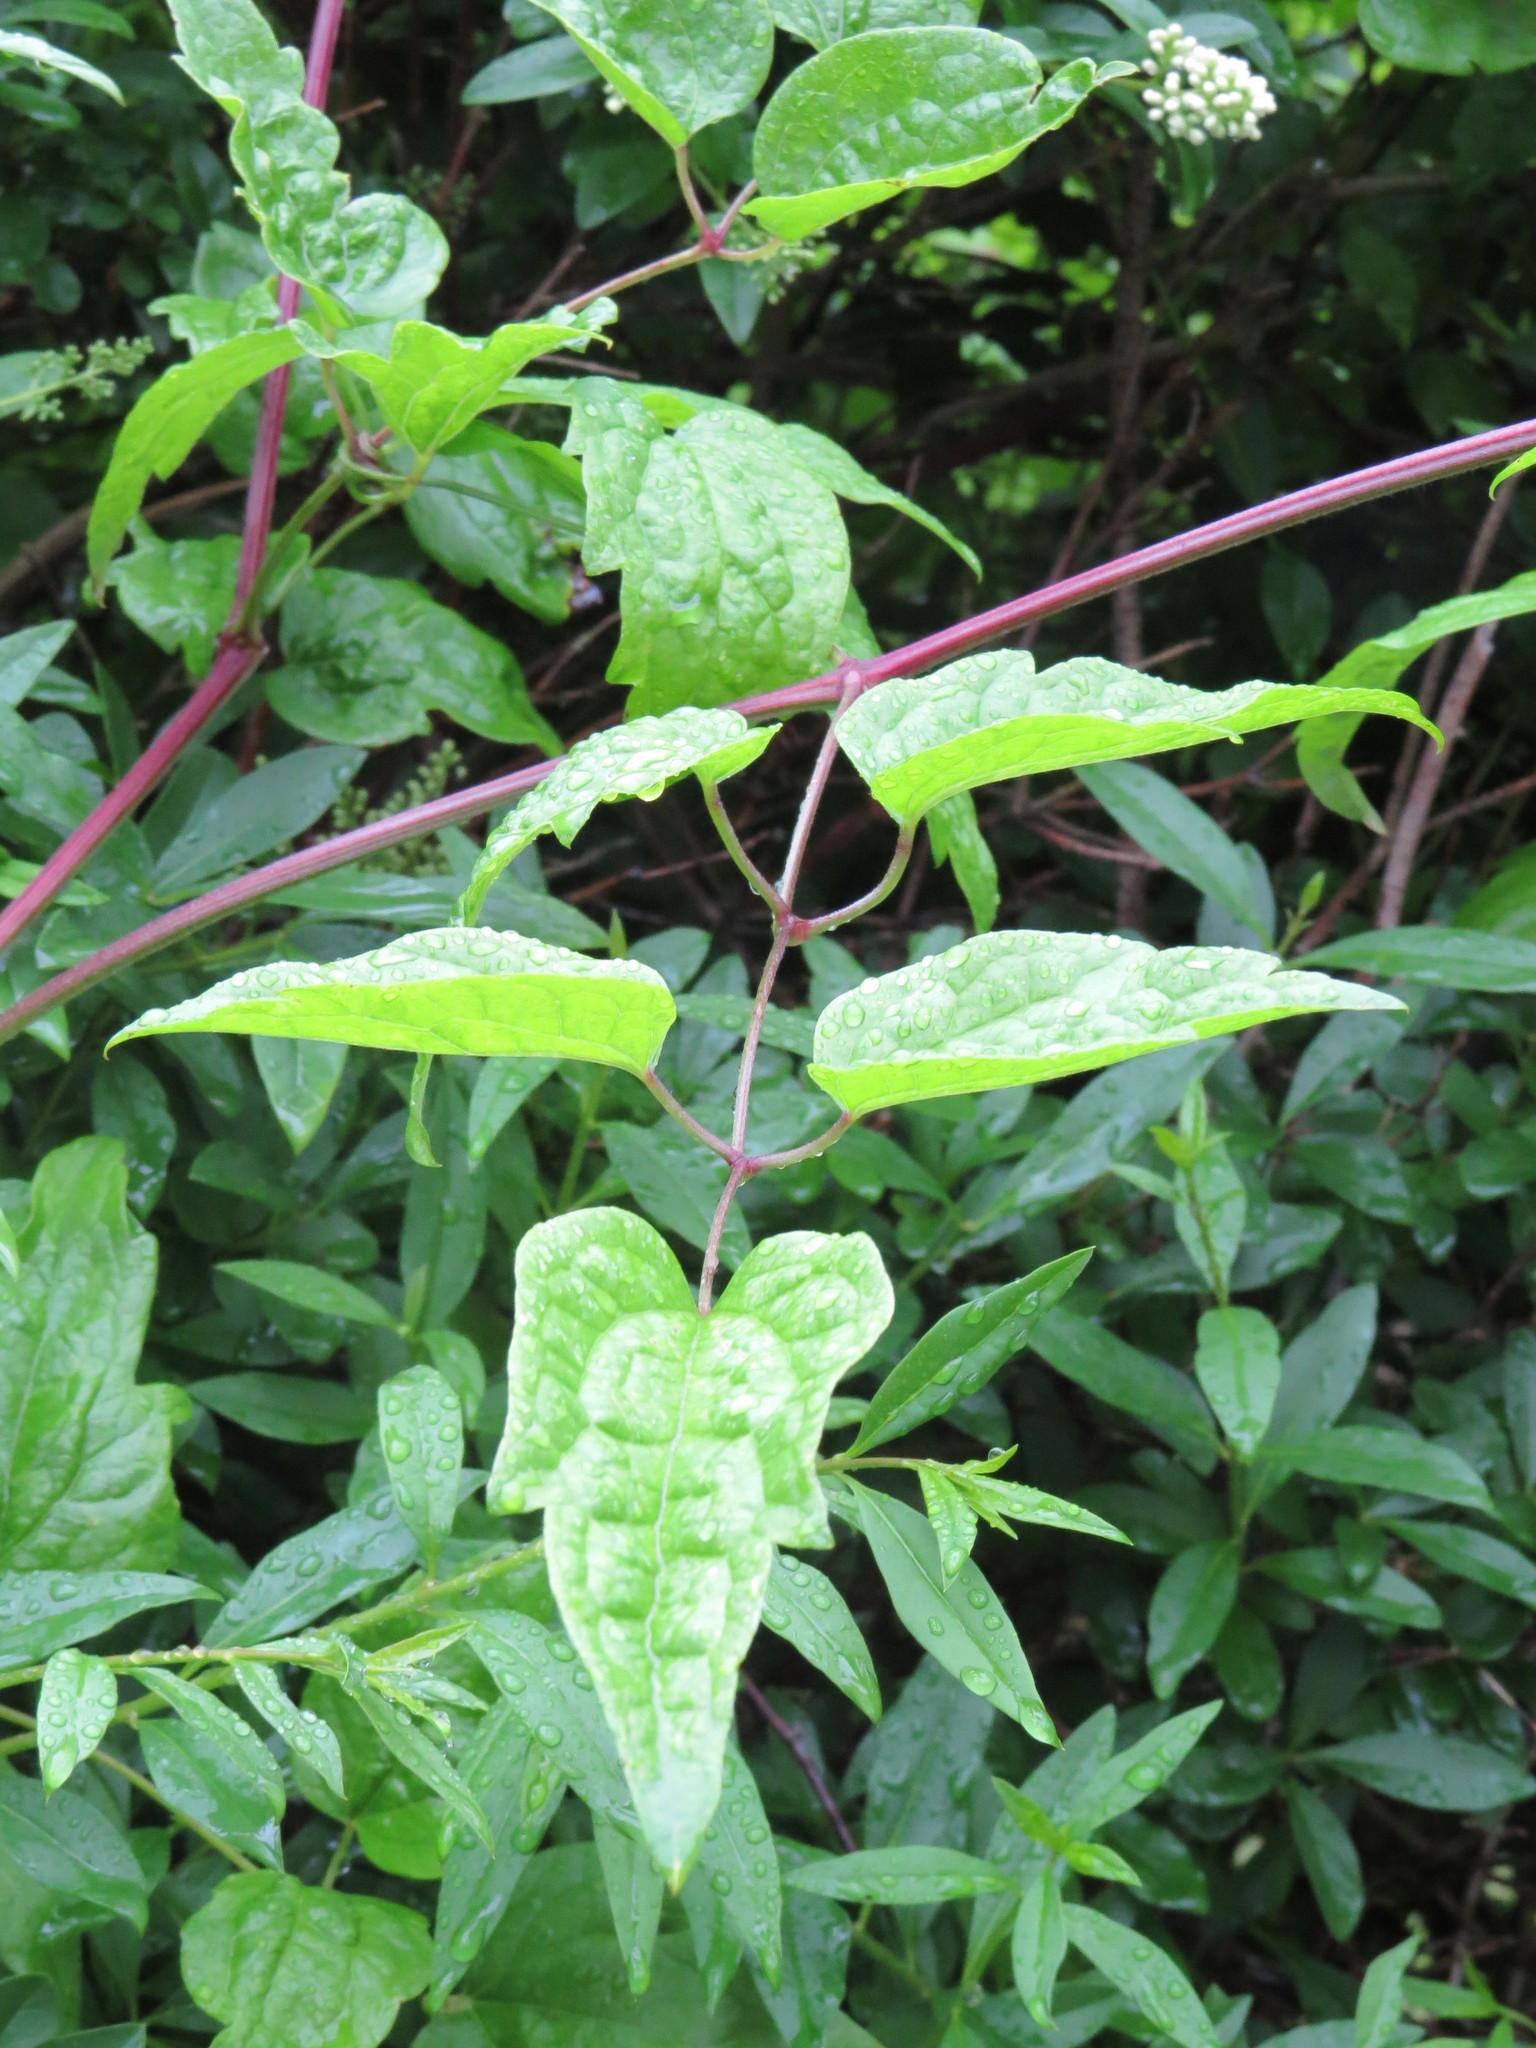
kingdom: Plantae
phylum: Tracheophyta
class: Magnoliopsida
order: Ranunculales
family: Ranunculaceae
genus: Clematis
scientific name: Clematis vitalba
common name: Evergreen clematis
